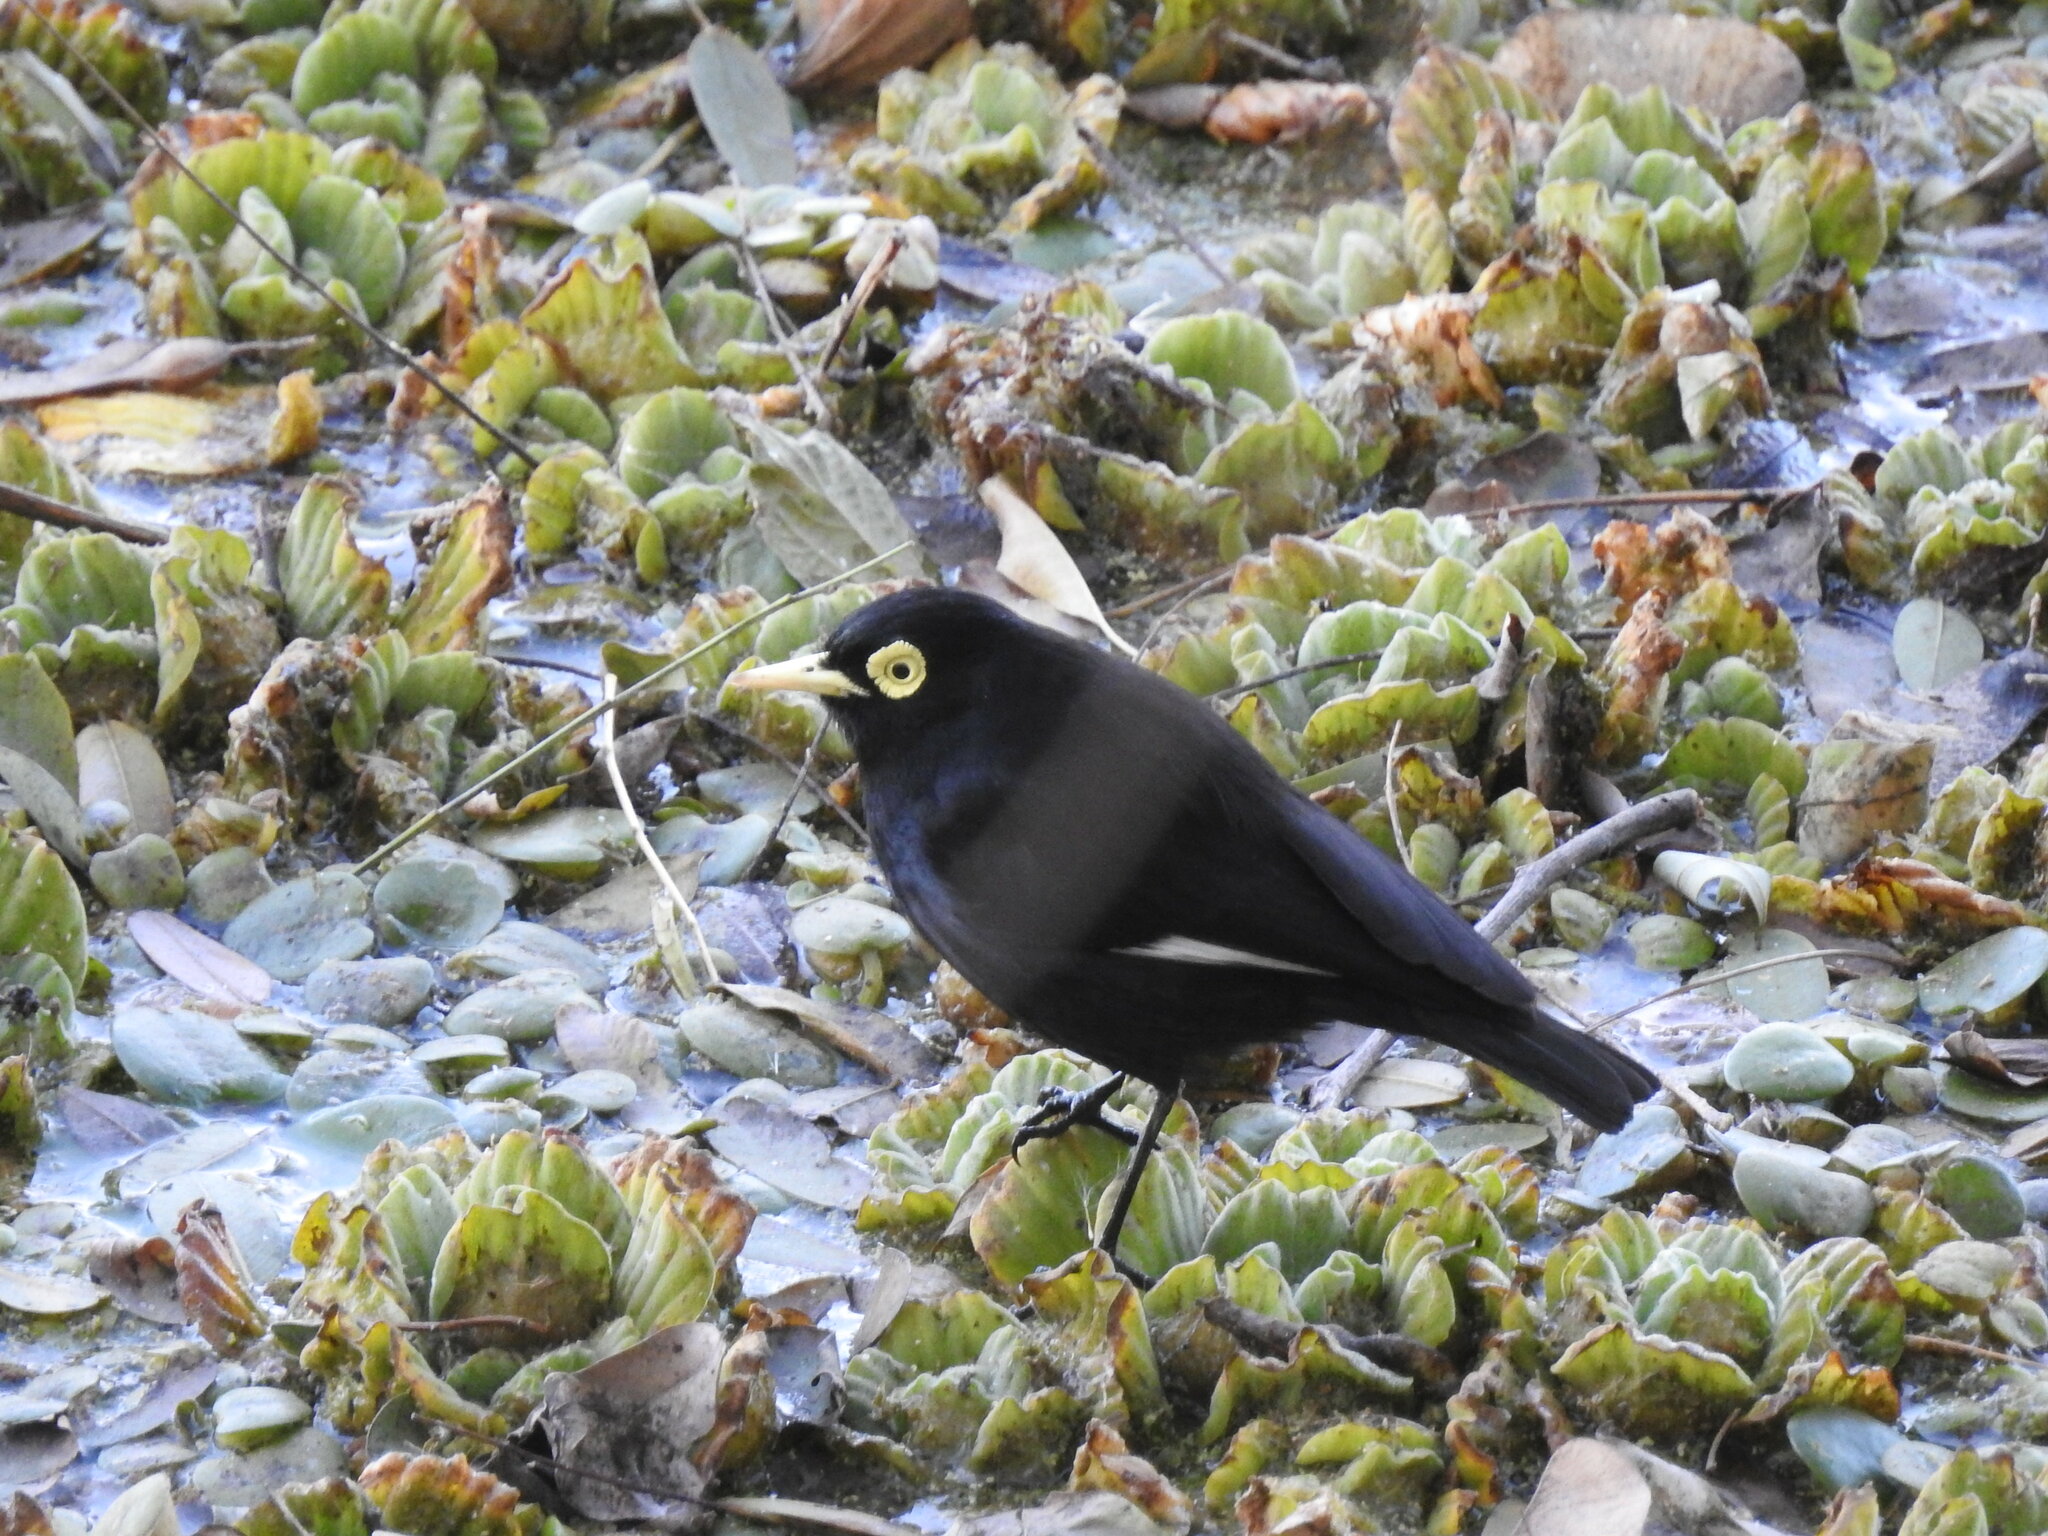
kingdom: Animalia
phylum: Chordata
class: Aves
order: Passeriformes
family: Tyrannidae
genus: Hymenops
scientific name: Hymenops perspicillatus
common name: Spectacled tyrant
